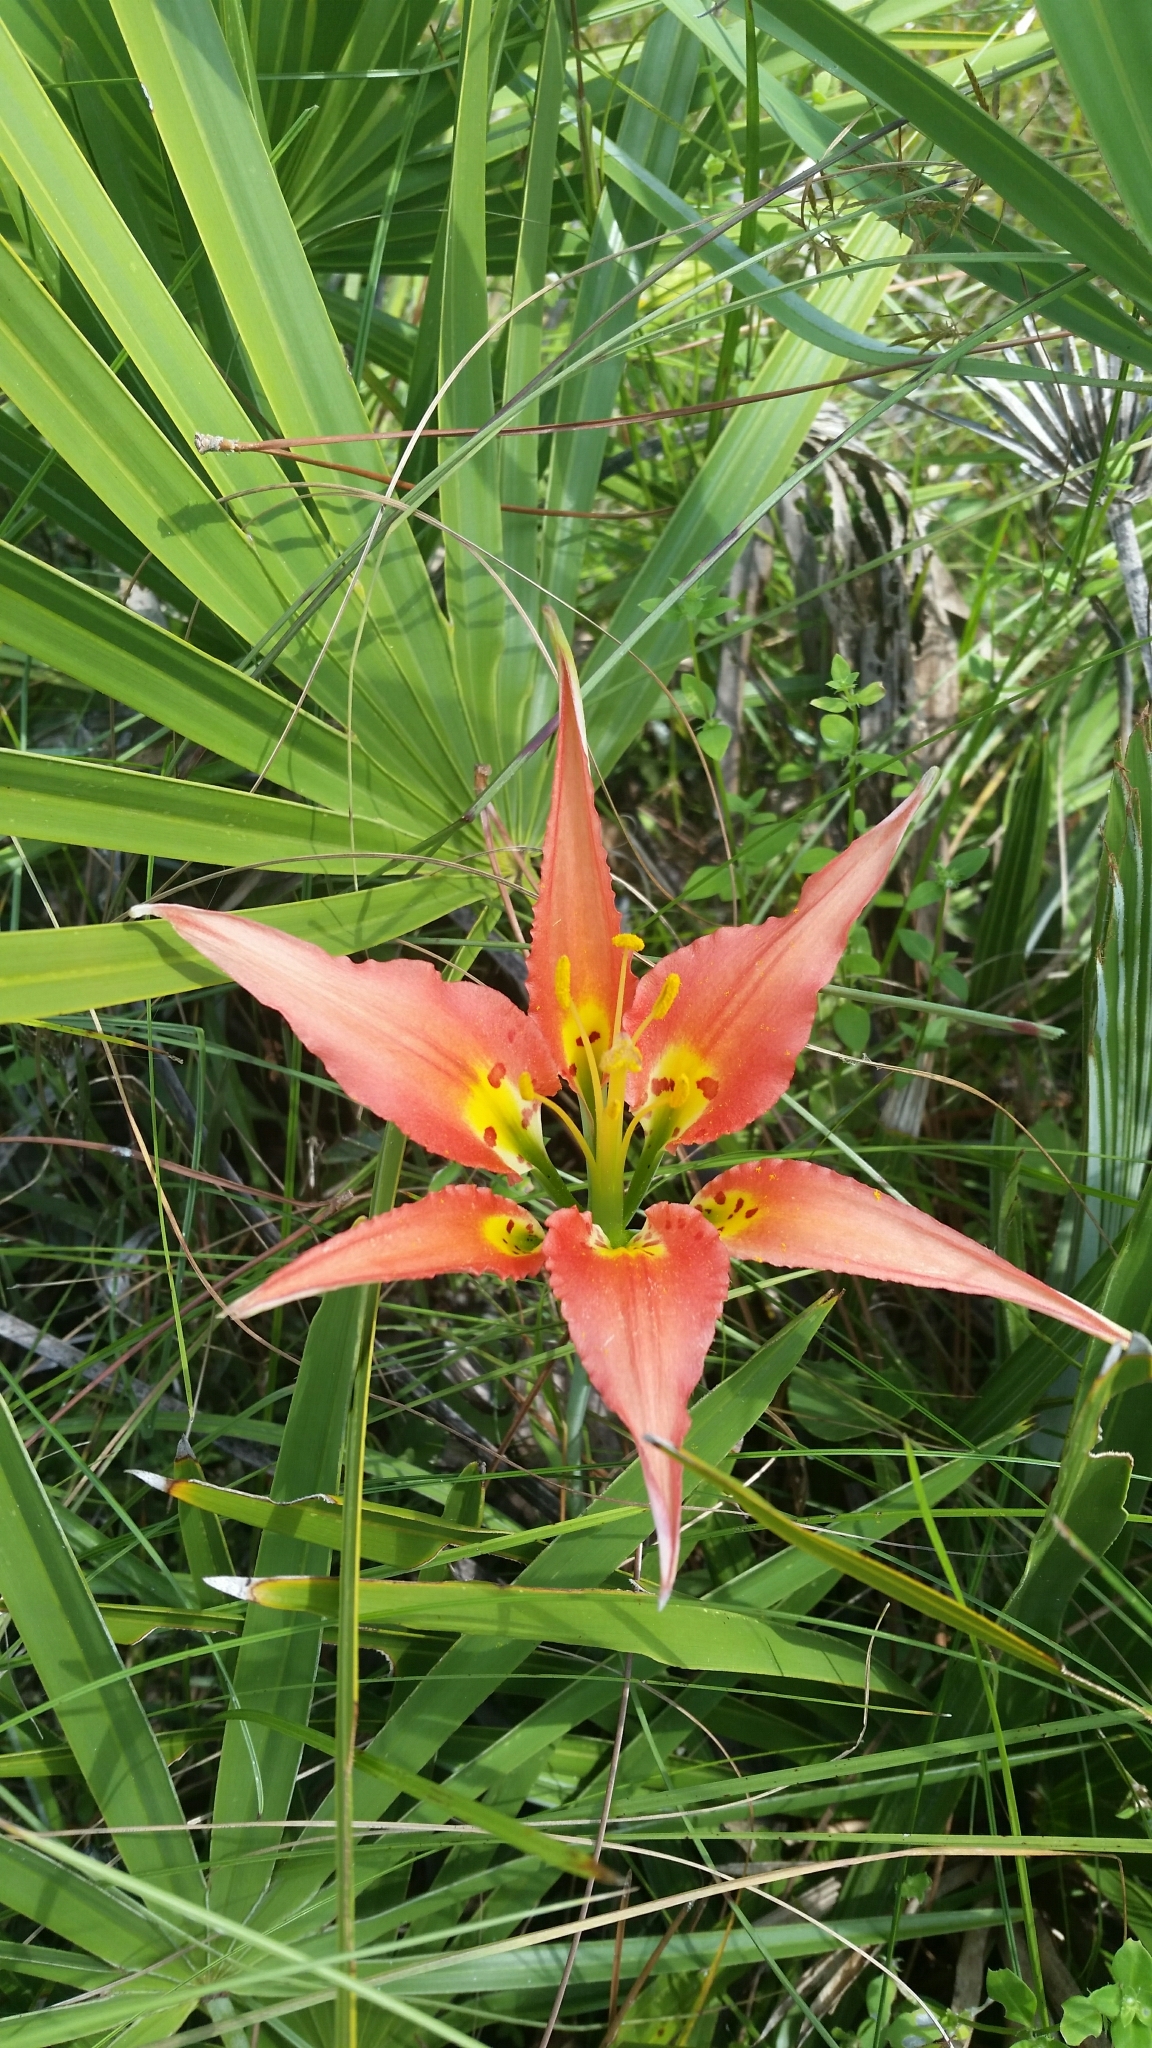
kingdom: Plantae
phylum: Tracheophyta
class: Liliopsida
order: Liliales
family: Liliaceae
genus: Lilium
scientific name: Lilium catesbaei
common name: Catesby's lily
